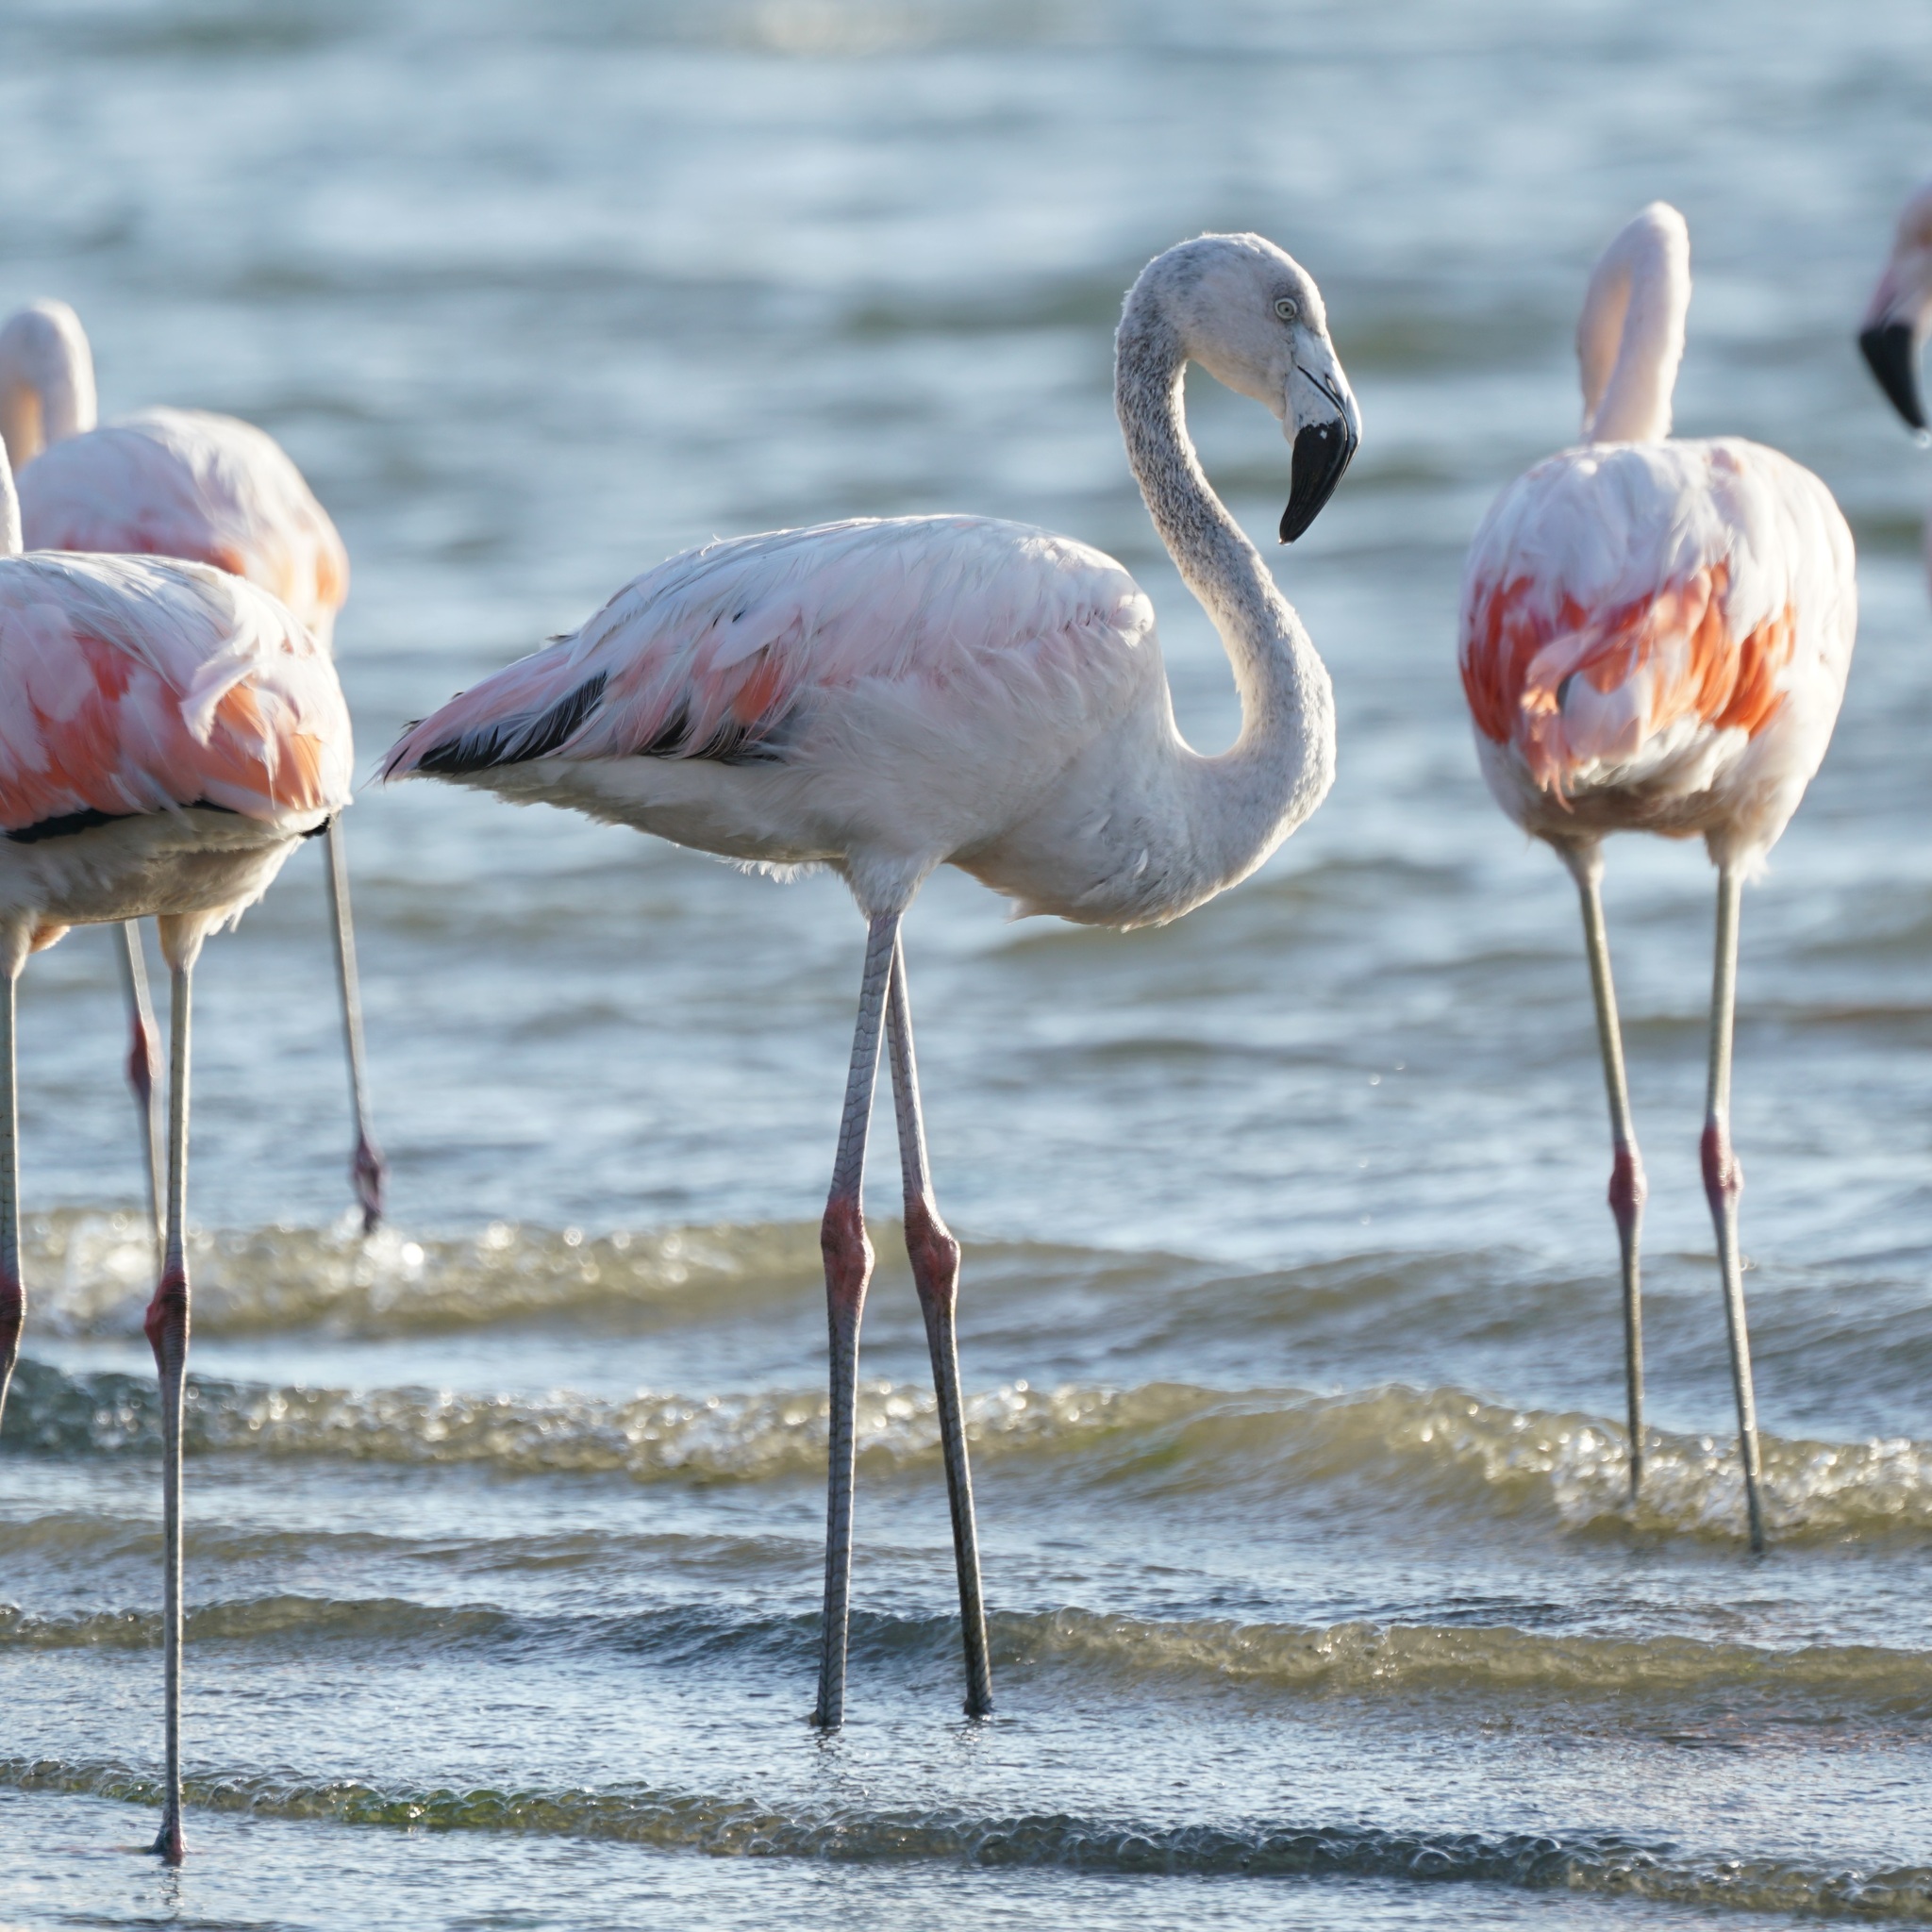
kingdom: Animalia
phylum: Chordata
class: Aves
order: Phoenicopteriformes
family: Phoenicopteridae
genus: Phoenicopterus
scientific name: Phoenicopterus chilensis
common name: Chilean flamingo
